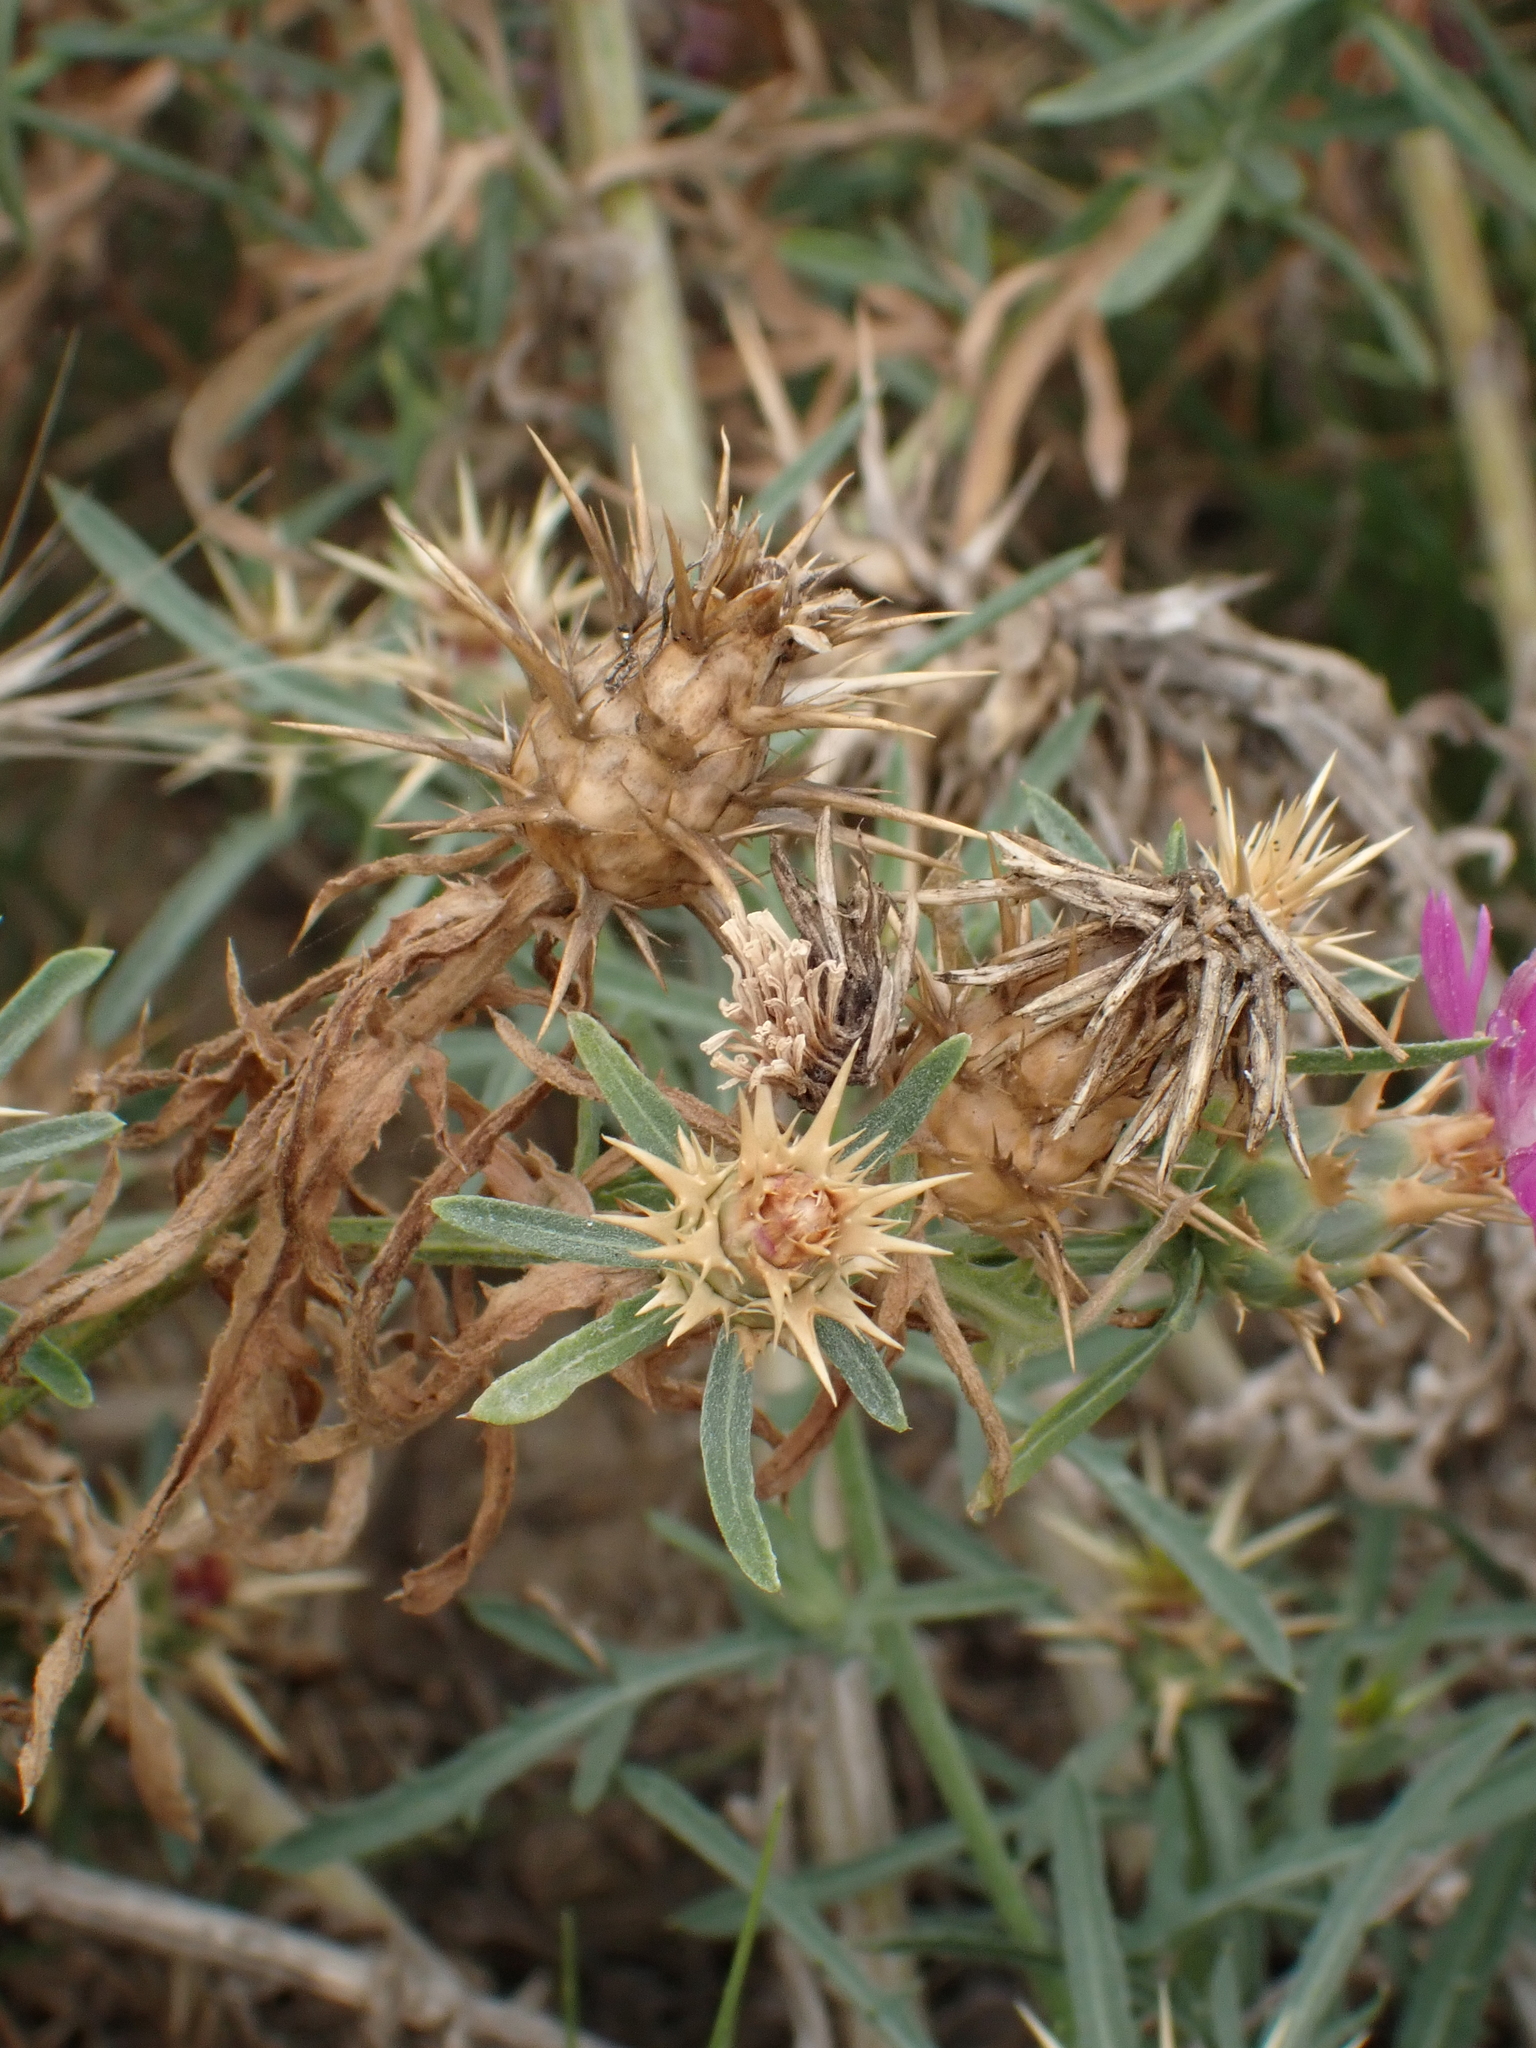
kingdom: Plantae
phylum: Tracheophyta
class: Magnoliopsida
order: Asterales
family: Asteraceae
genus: Centaurea
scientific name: Centaurea calcitrapa
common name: Red star-thistle
